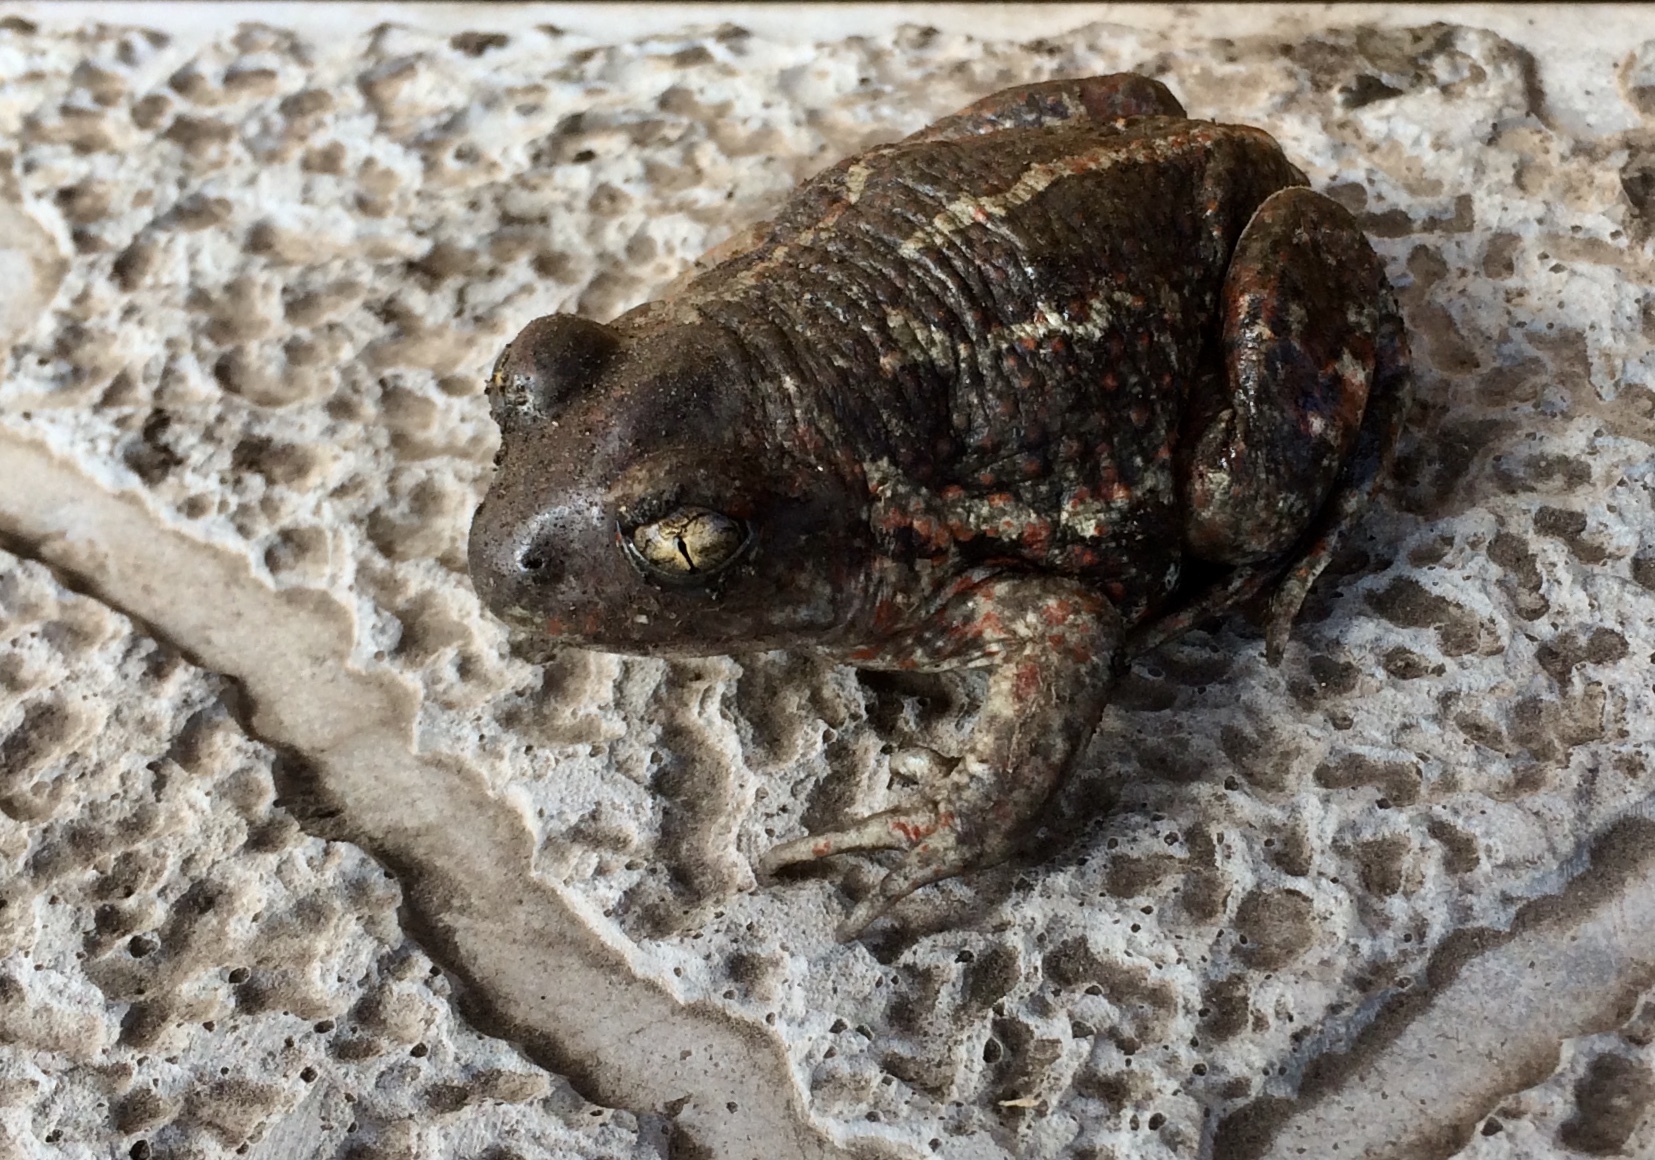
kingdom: Animalia
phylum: Chordata
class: Amphibia
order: Anura
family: Pelobatidae
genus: Pelobates
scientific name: Pelobates vespertinus
